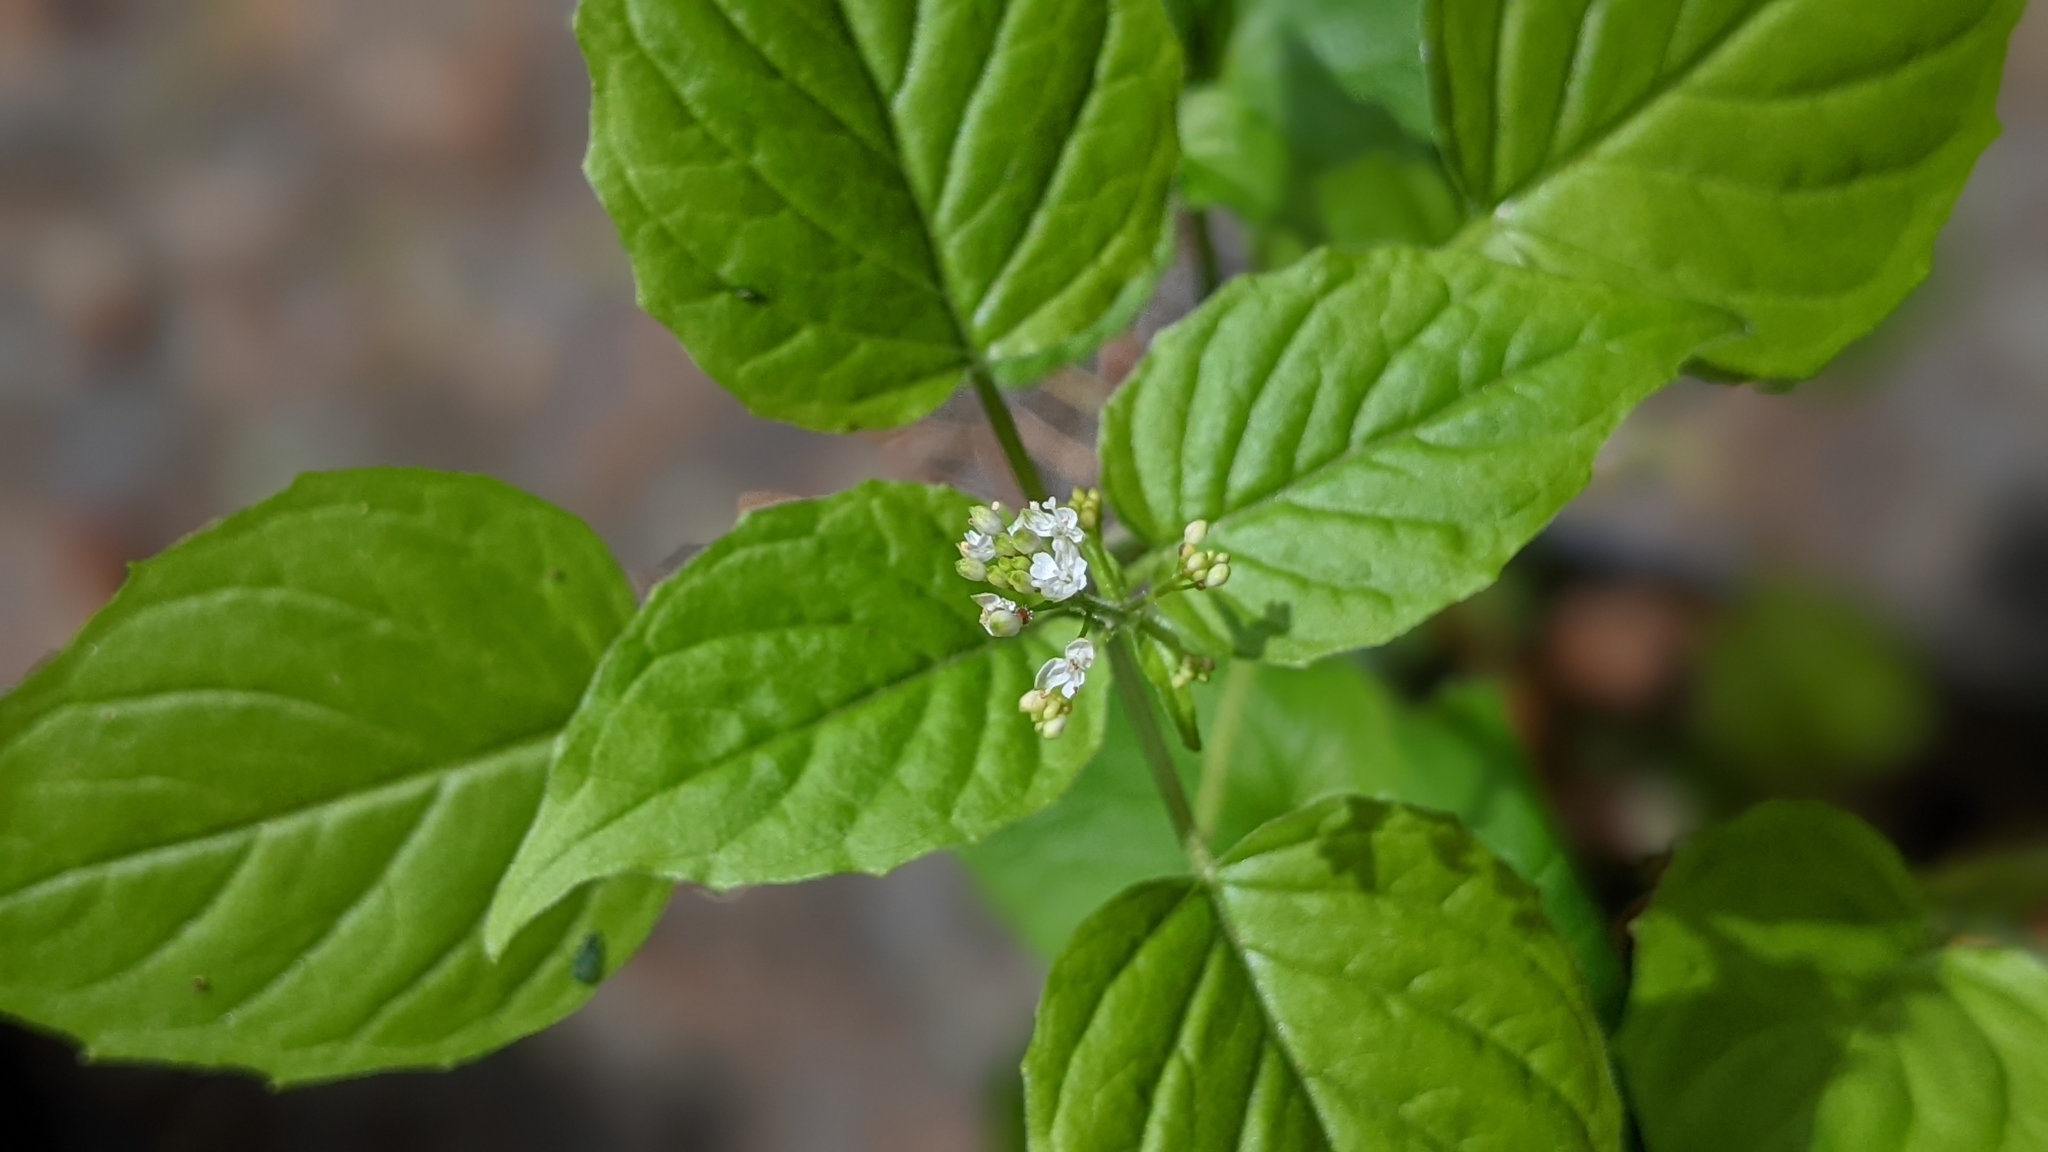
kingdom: Plantae
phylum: Tracheophyta
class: Magnoliopsida
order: Myrtales
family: Onagraceae
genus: Circaea
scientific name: Circaea alpina
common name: Alpine enchanter's-nightshade
